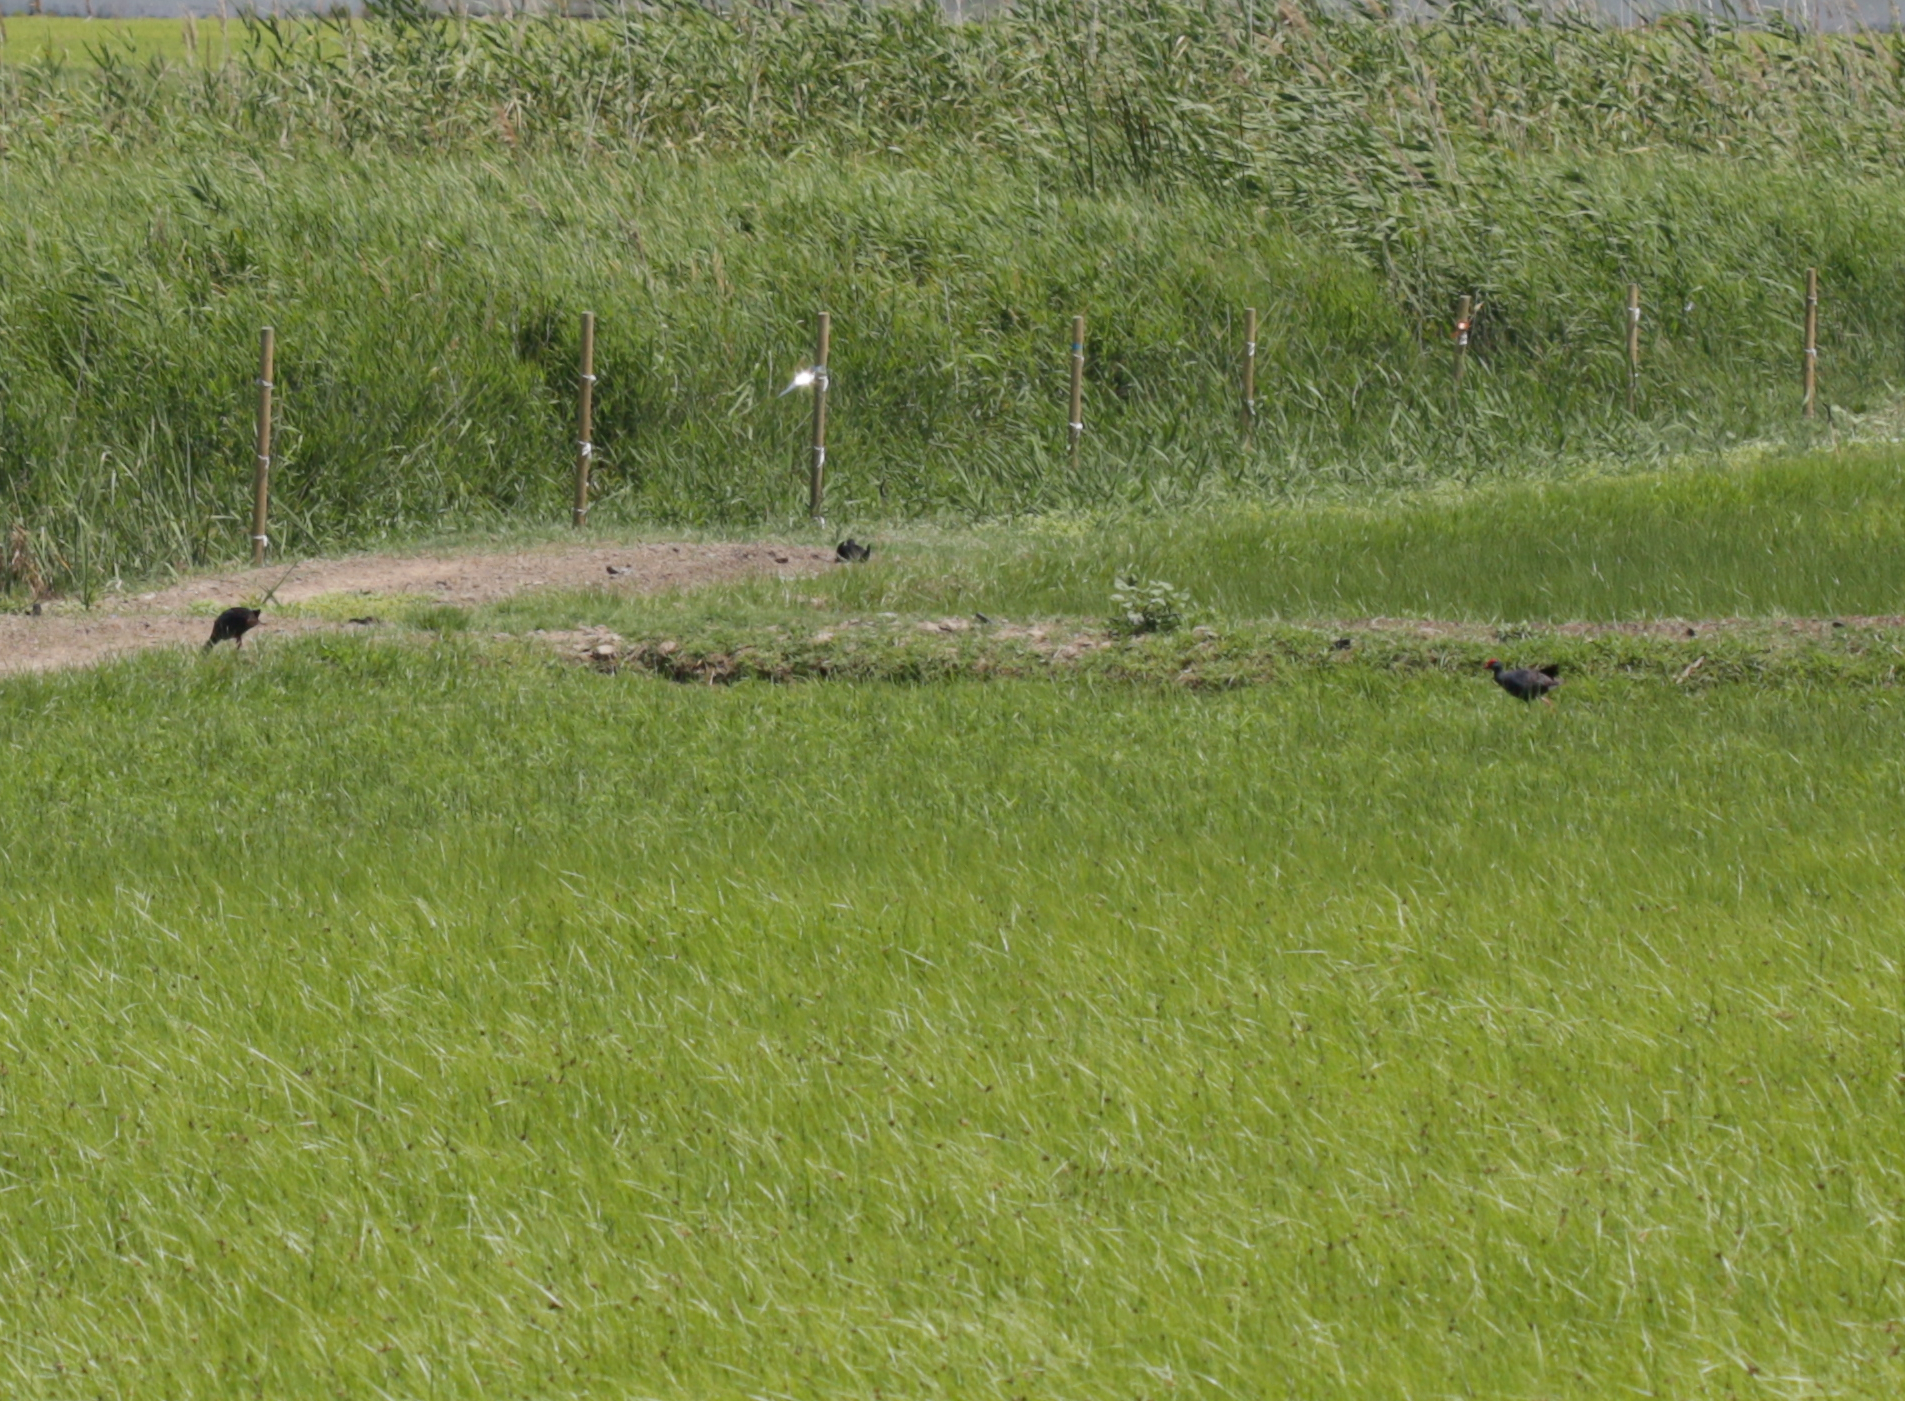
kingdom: Animalia
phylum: Chordata
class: Aves
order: Gruiformes
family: Rallidae
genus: Porphyrio
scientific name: Porphyrio porphyrio
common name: Purple swamphen
